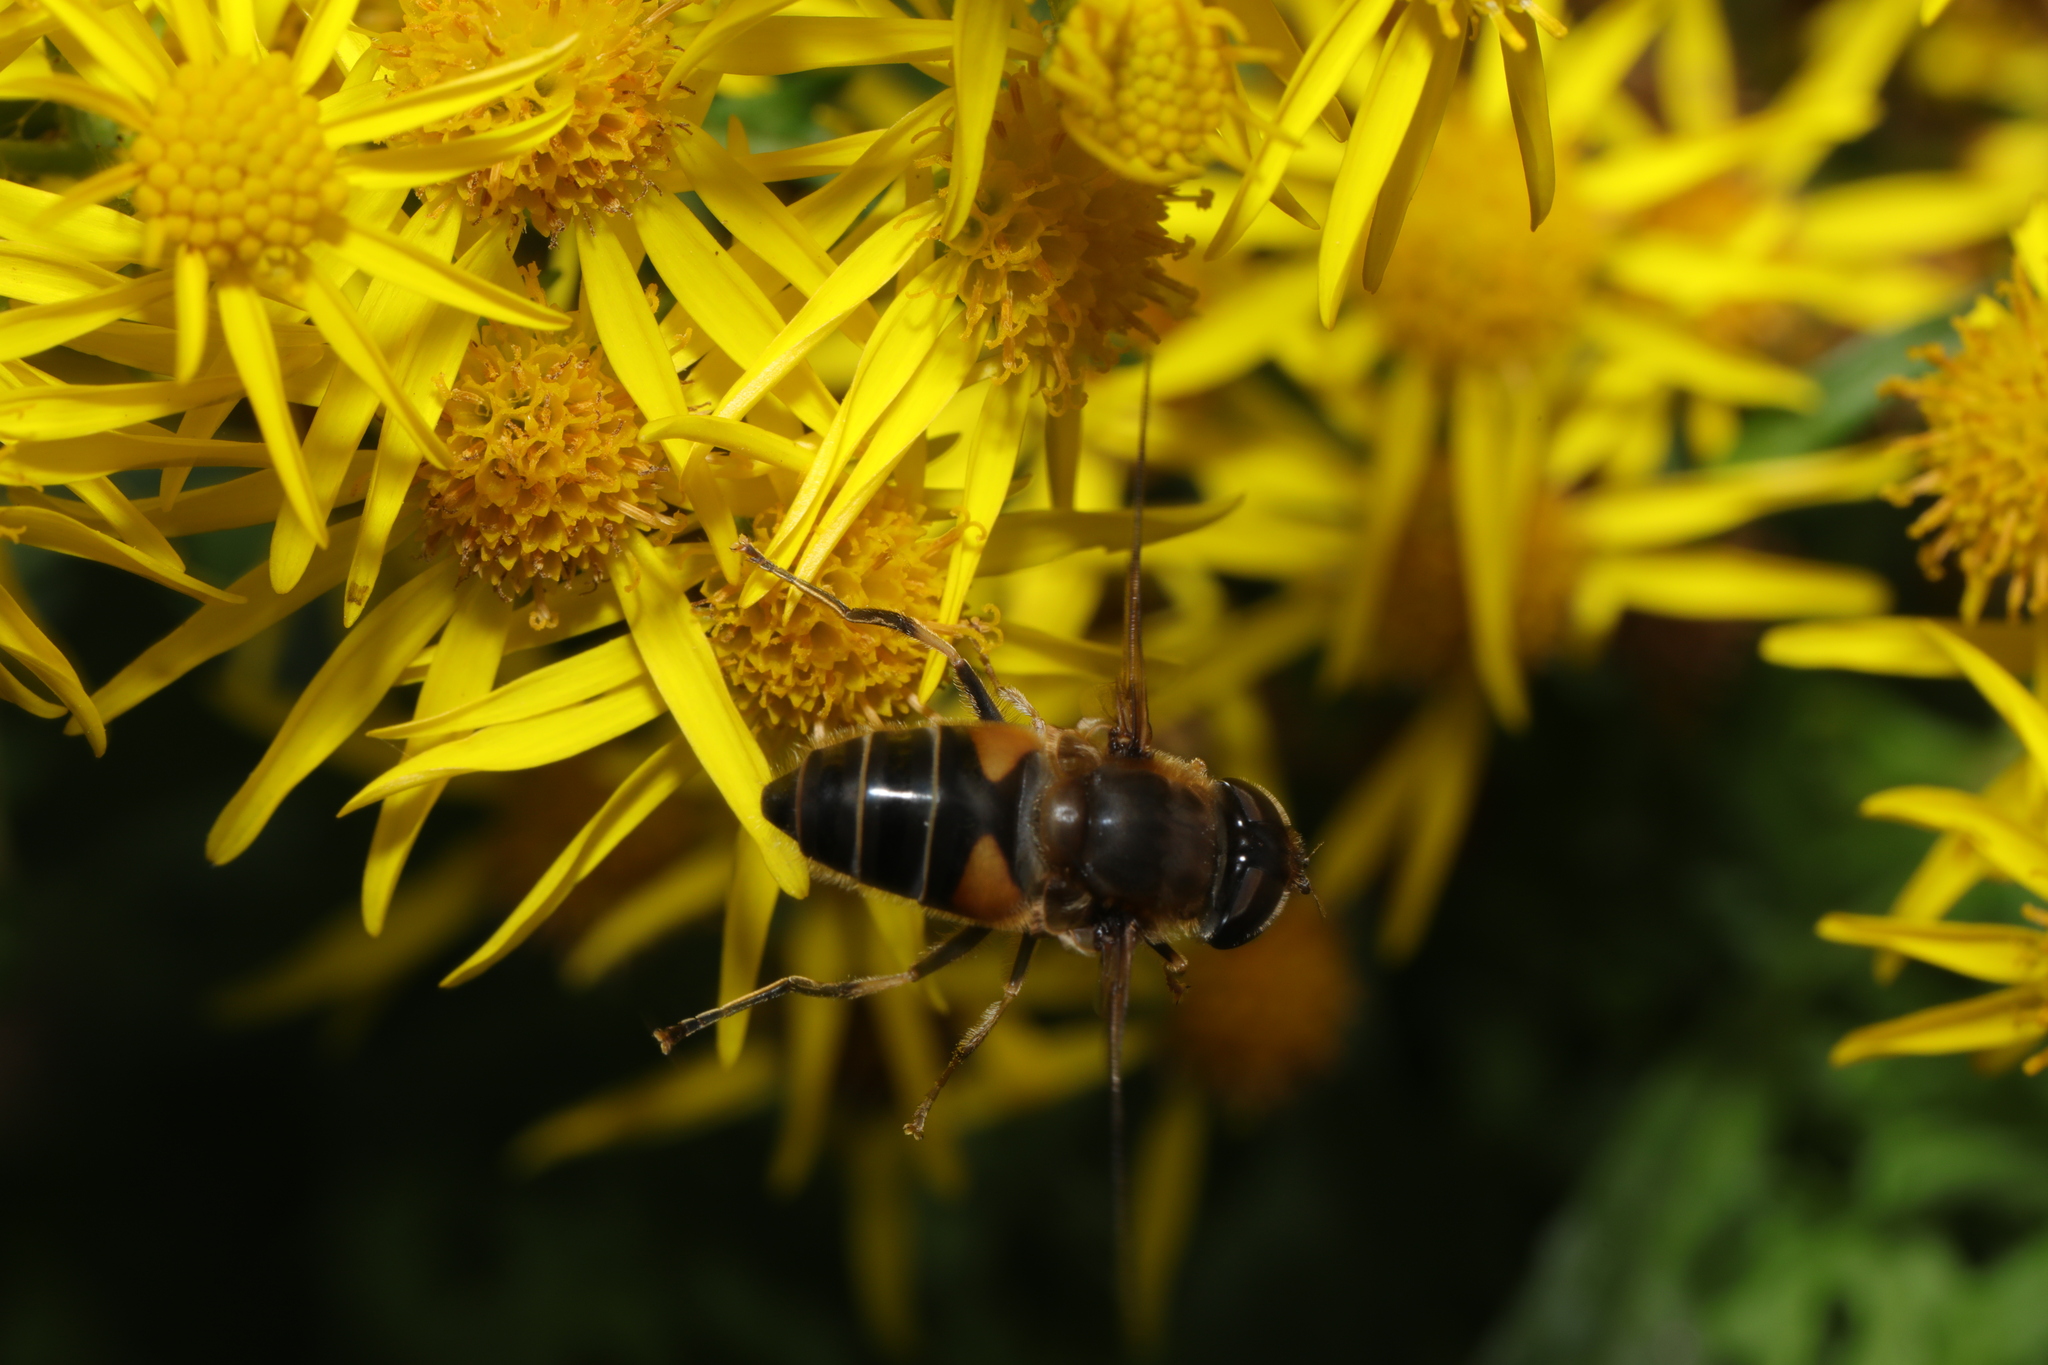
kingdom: Animalia
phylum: Arthropoda
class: Insecta
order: Diptera
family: Syrphidae
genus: Eristalis
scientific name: Eristalis pertinax
